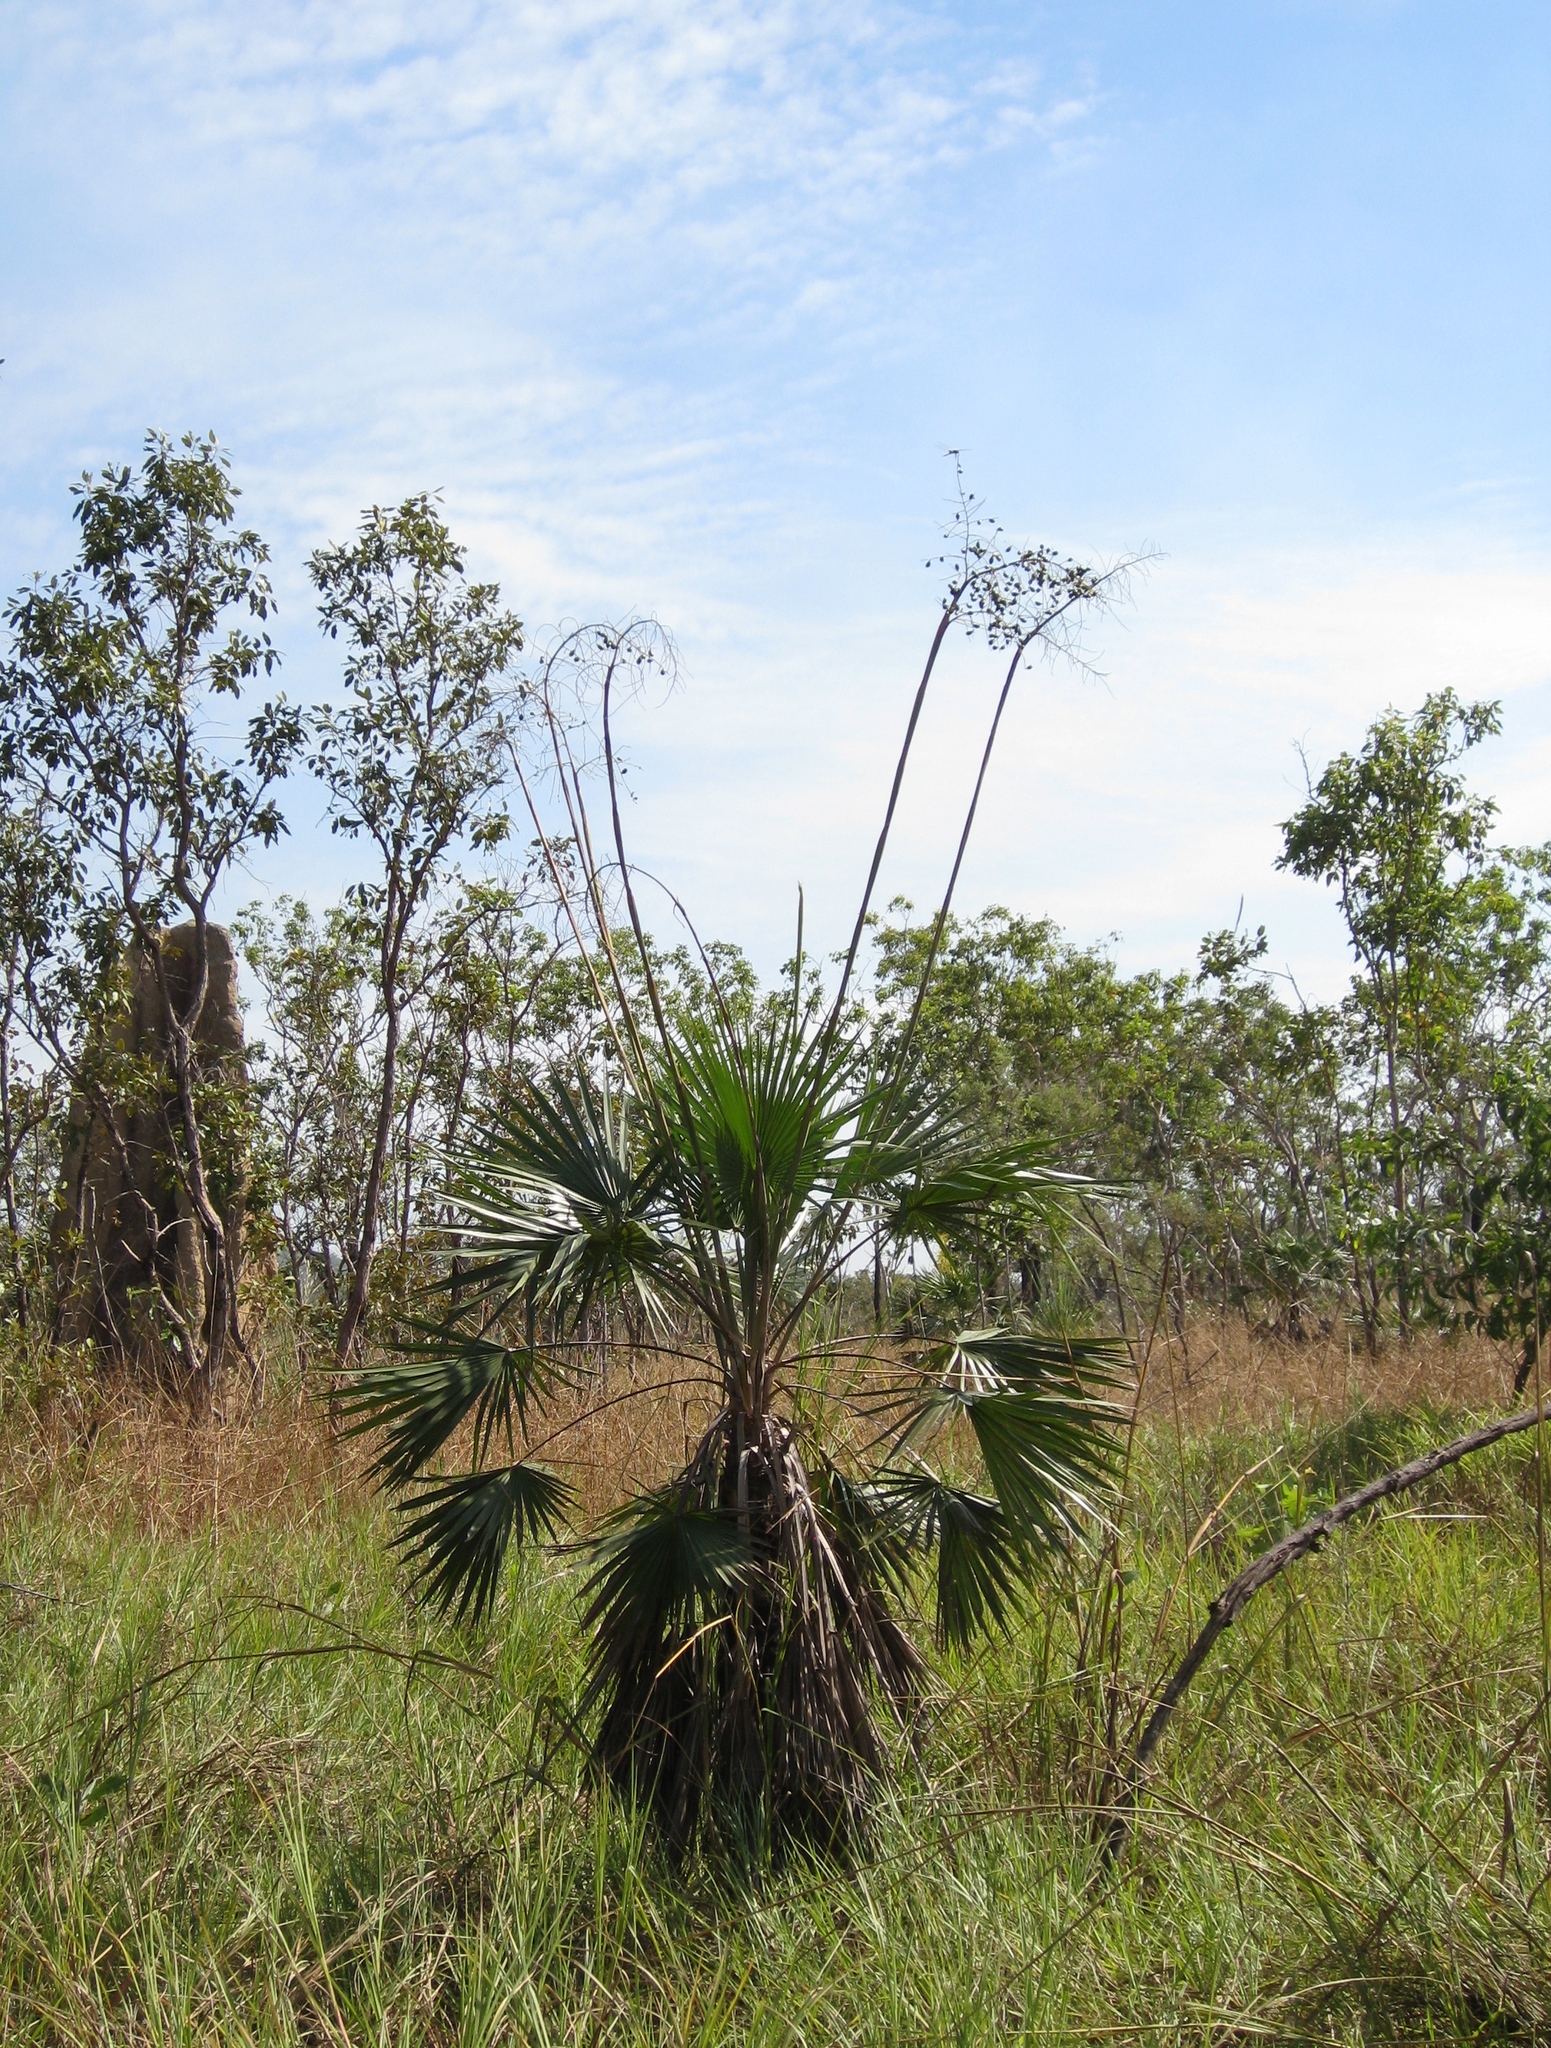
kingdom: Plantae
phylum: Tracheophyta
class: Liliopsida
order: Arecales
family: Arecaceae
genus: Livistona
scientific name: Livistona humilis
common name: Cabbage palm
